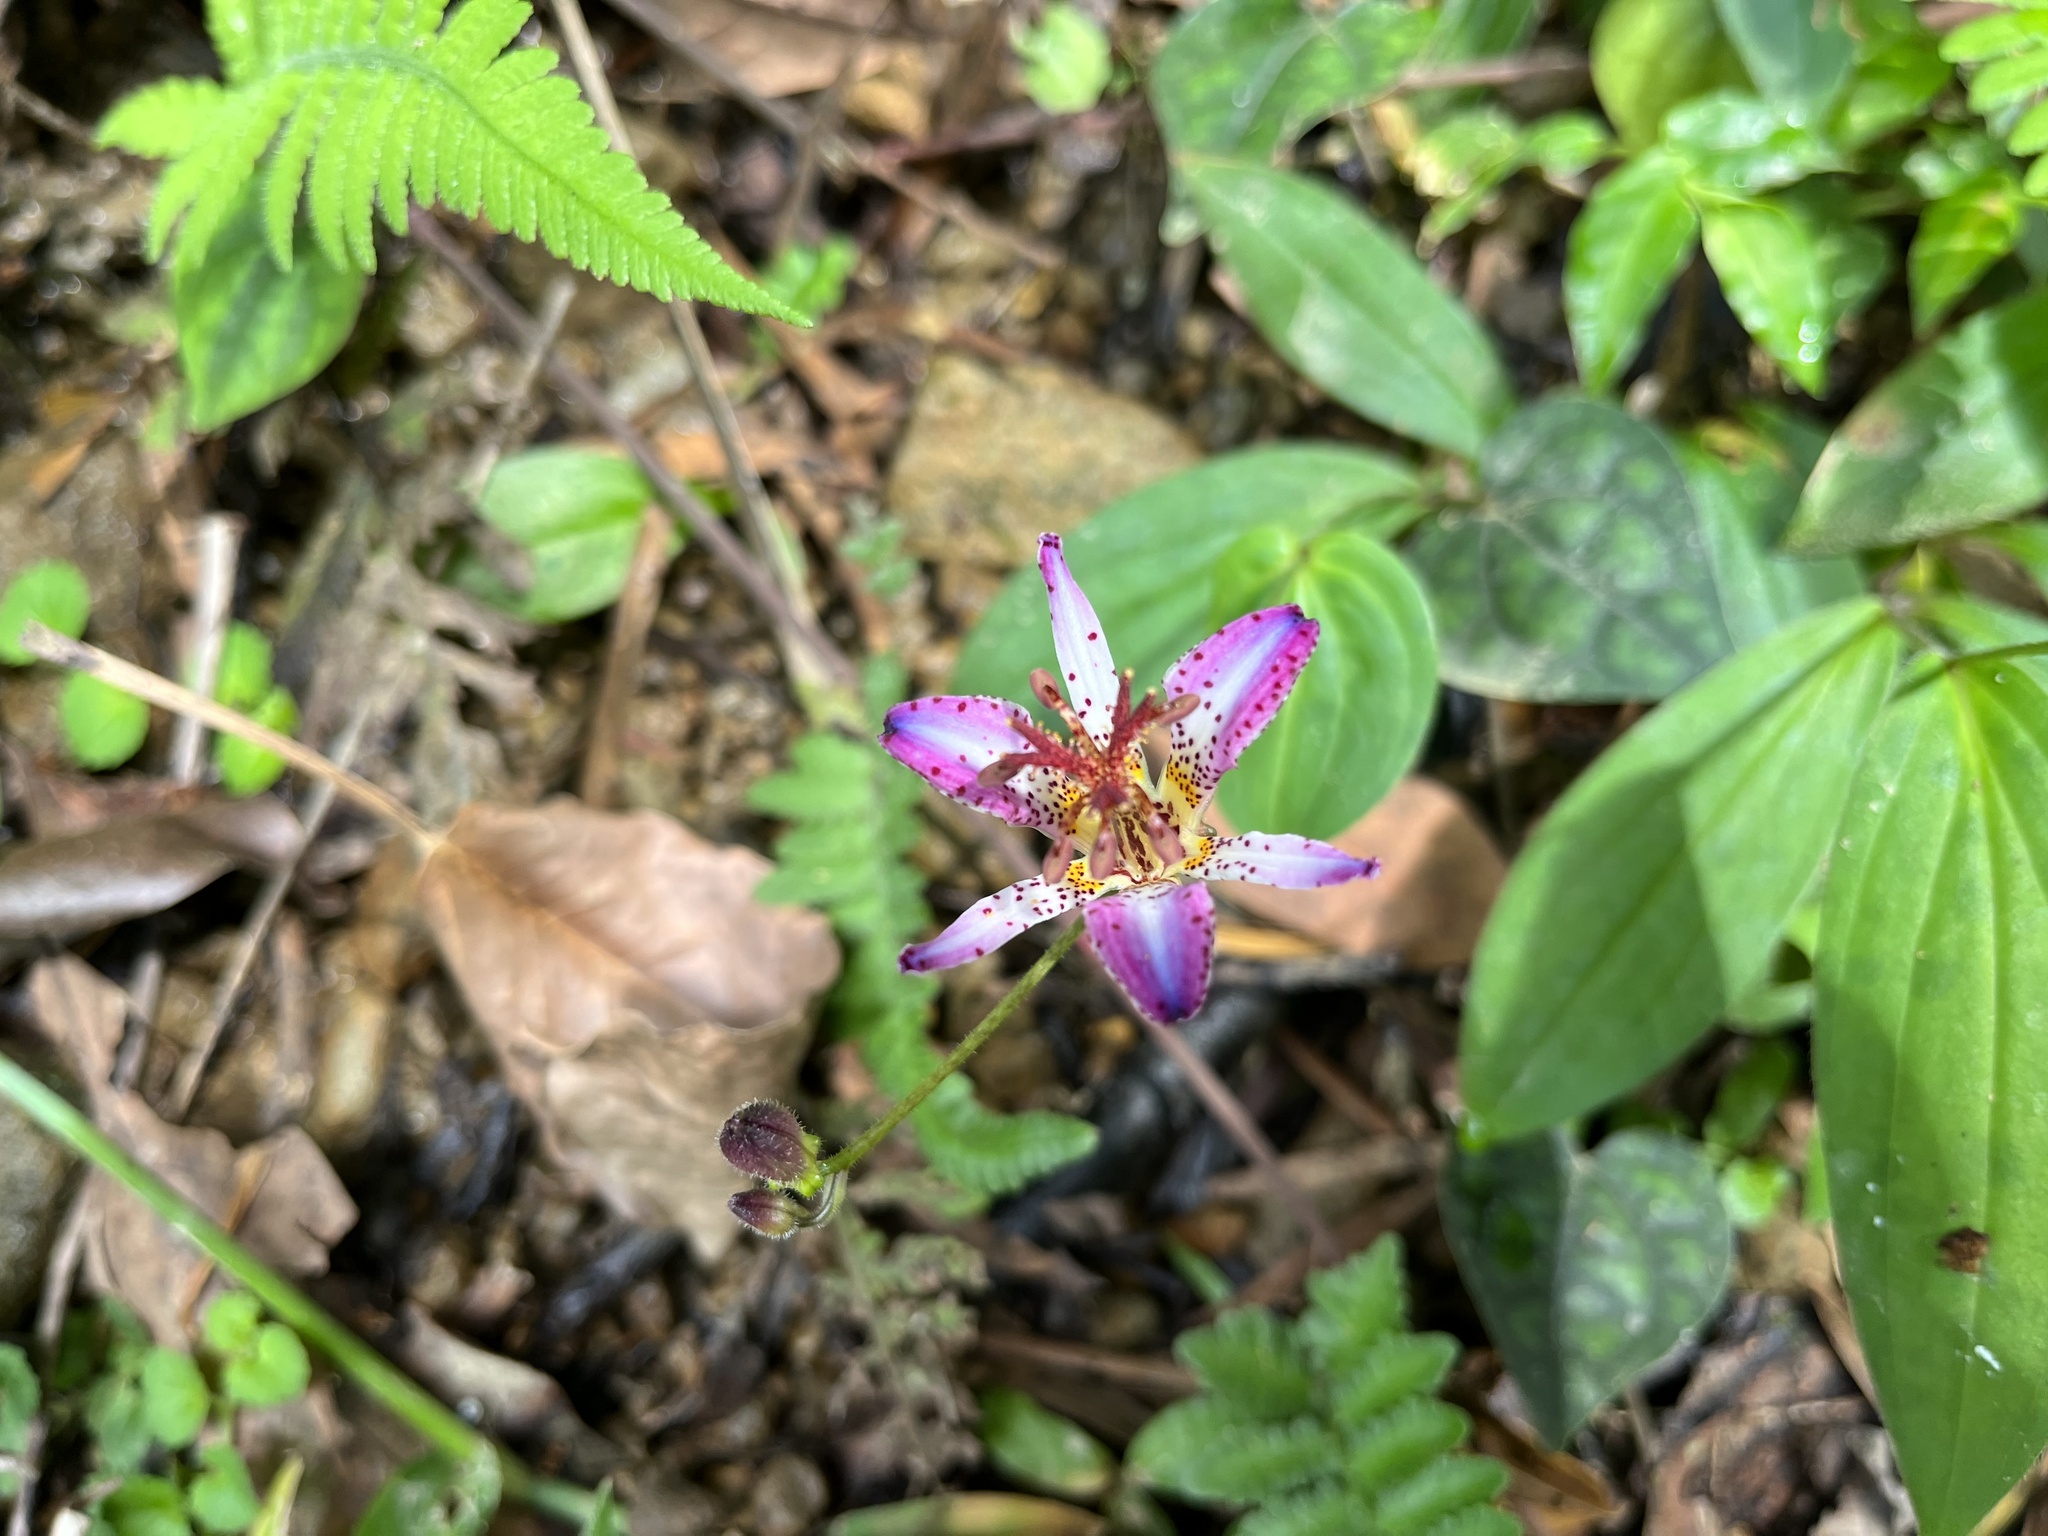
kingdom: Plantae
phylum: Tracheophyta
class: Liliopsida
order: Liliales
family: Liliaceae
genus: Tricyrtis
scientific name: Tricyrtis formosana
